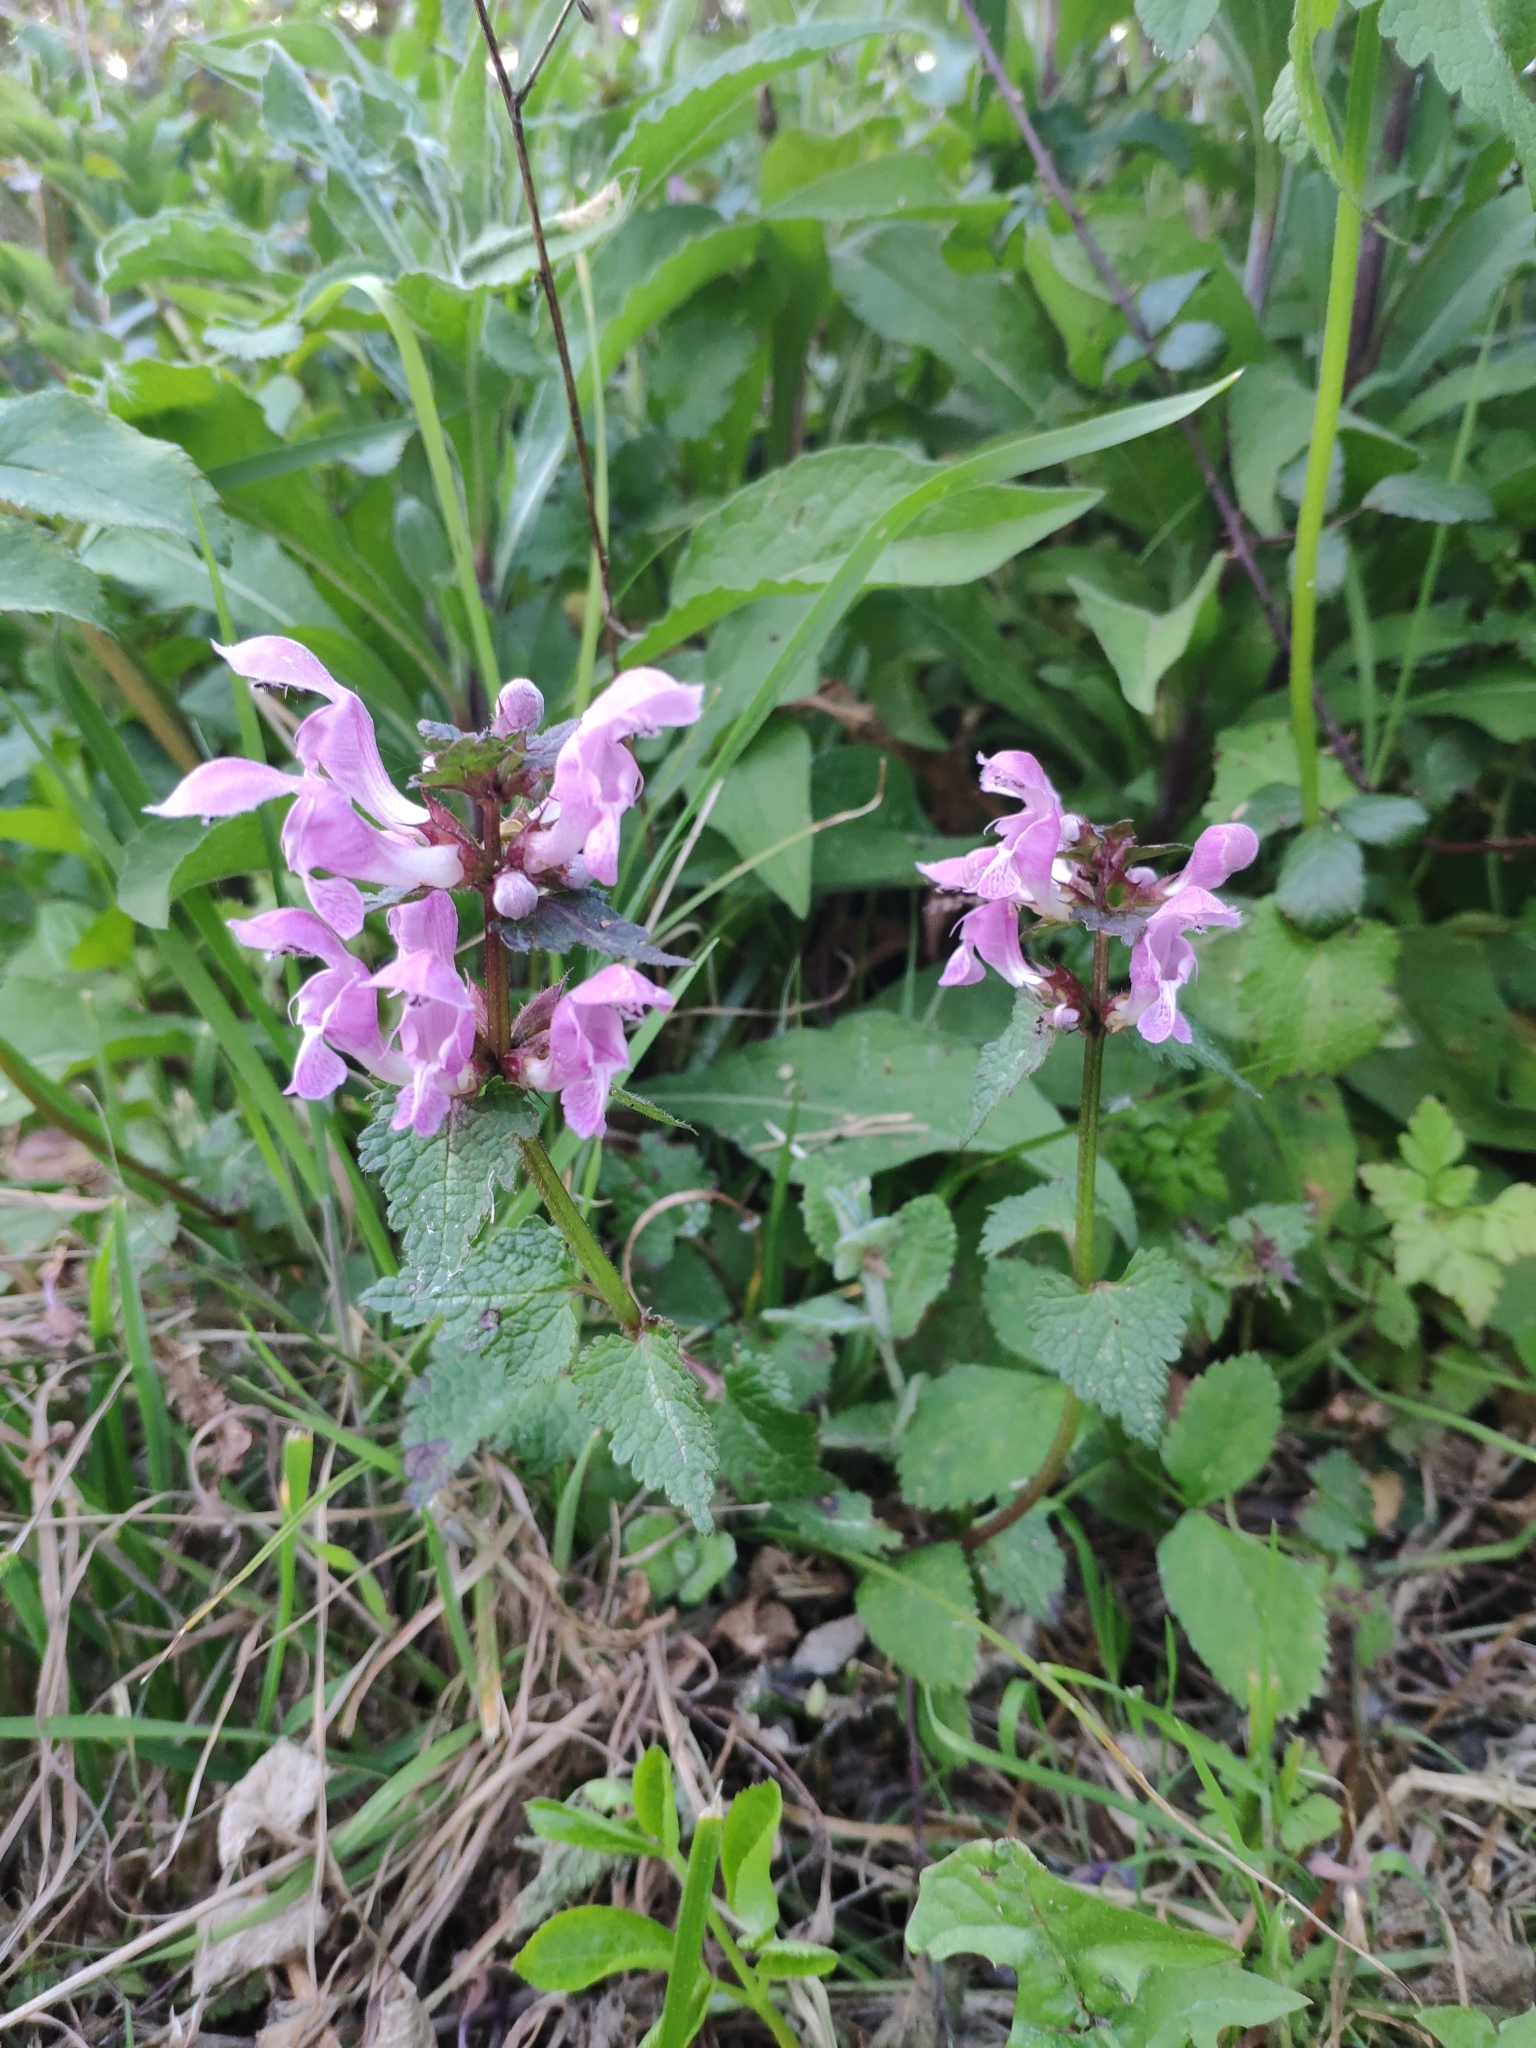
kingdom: Plantae
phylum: Tracheophyta
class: Magnoliopsida
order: Lamiales
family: Lamiaceae
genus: Lamium
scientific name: Lamium maculatum
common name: Spotted dead-nettle
